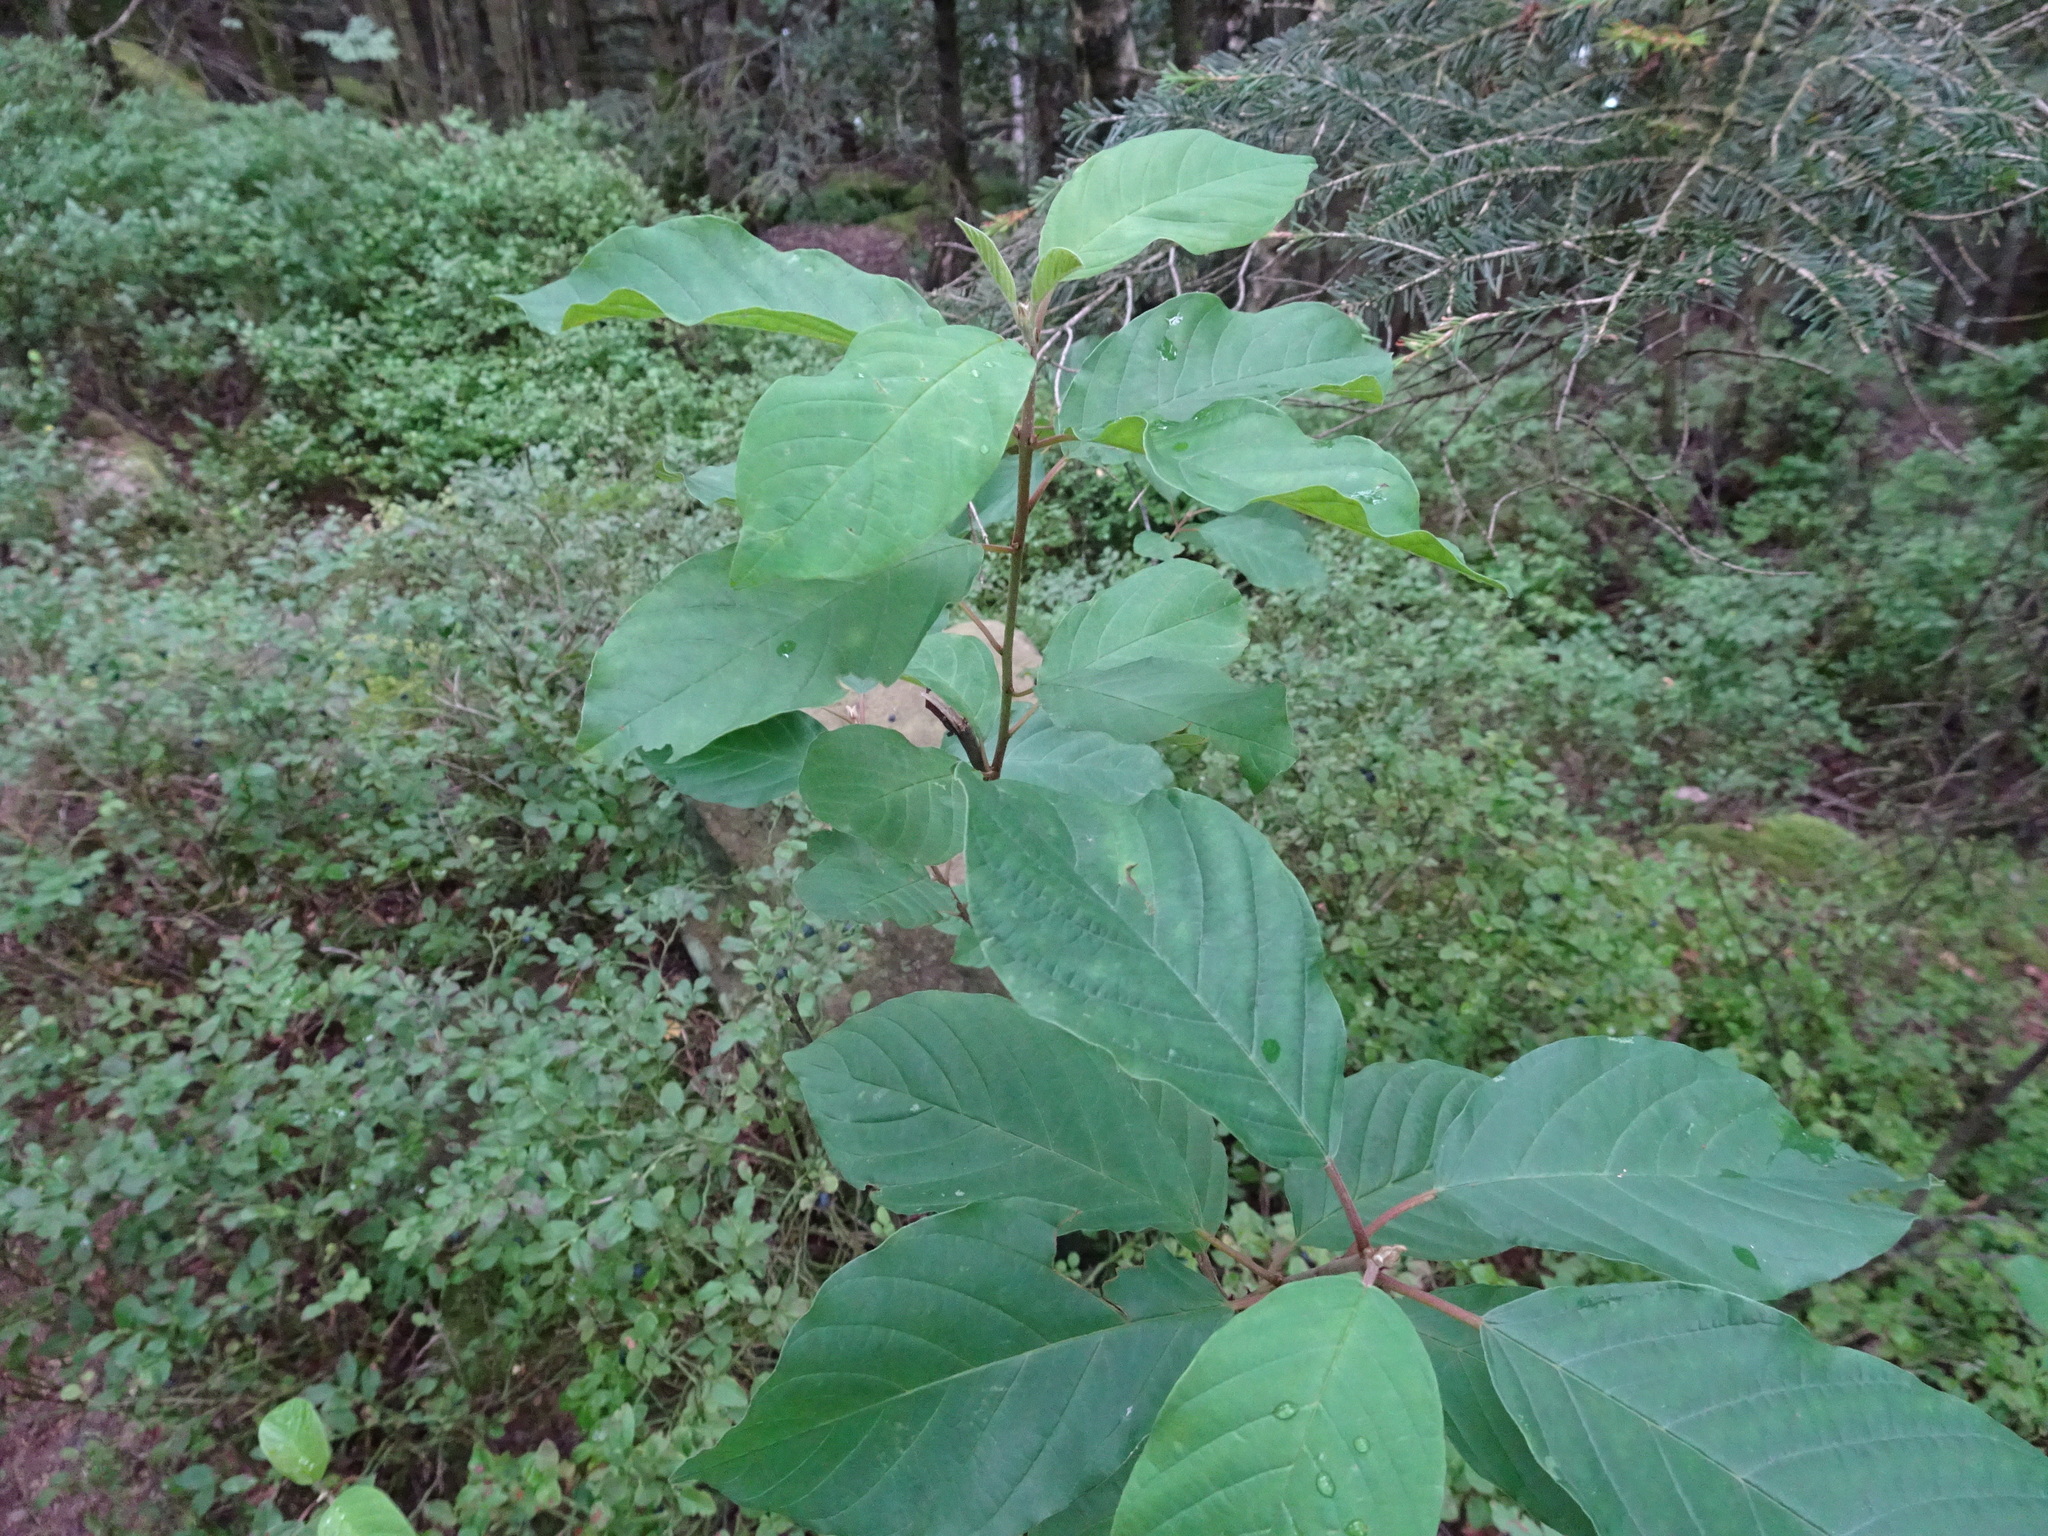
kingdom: Plantae
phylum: Tracheophyta
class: Magnoliopsida
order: Rosales
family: Rhamnaceae
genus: Frangula
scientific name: Frangula alnus
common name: Alder buckthorn
